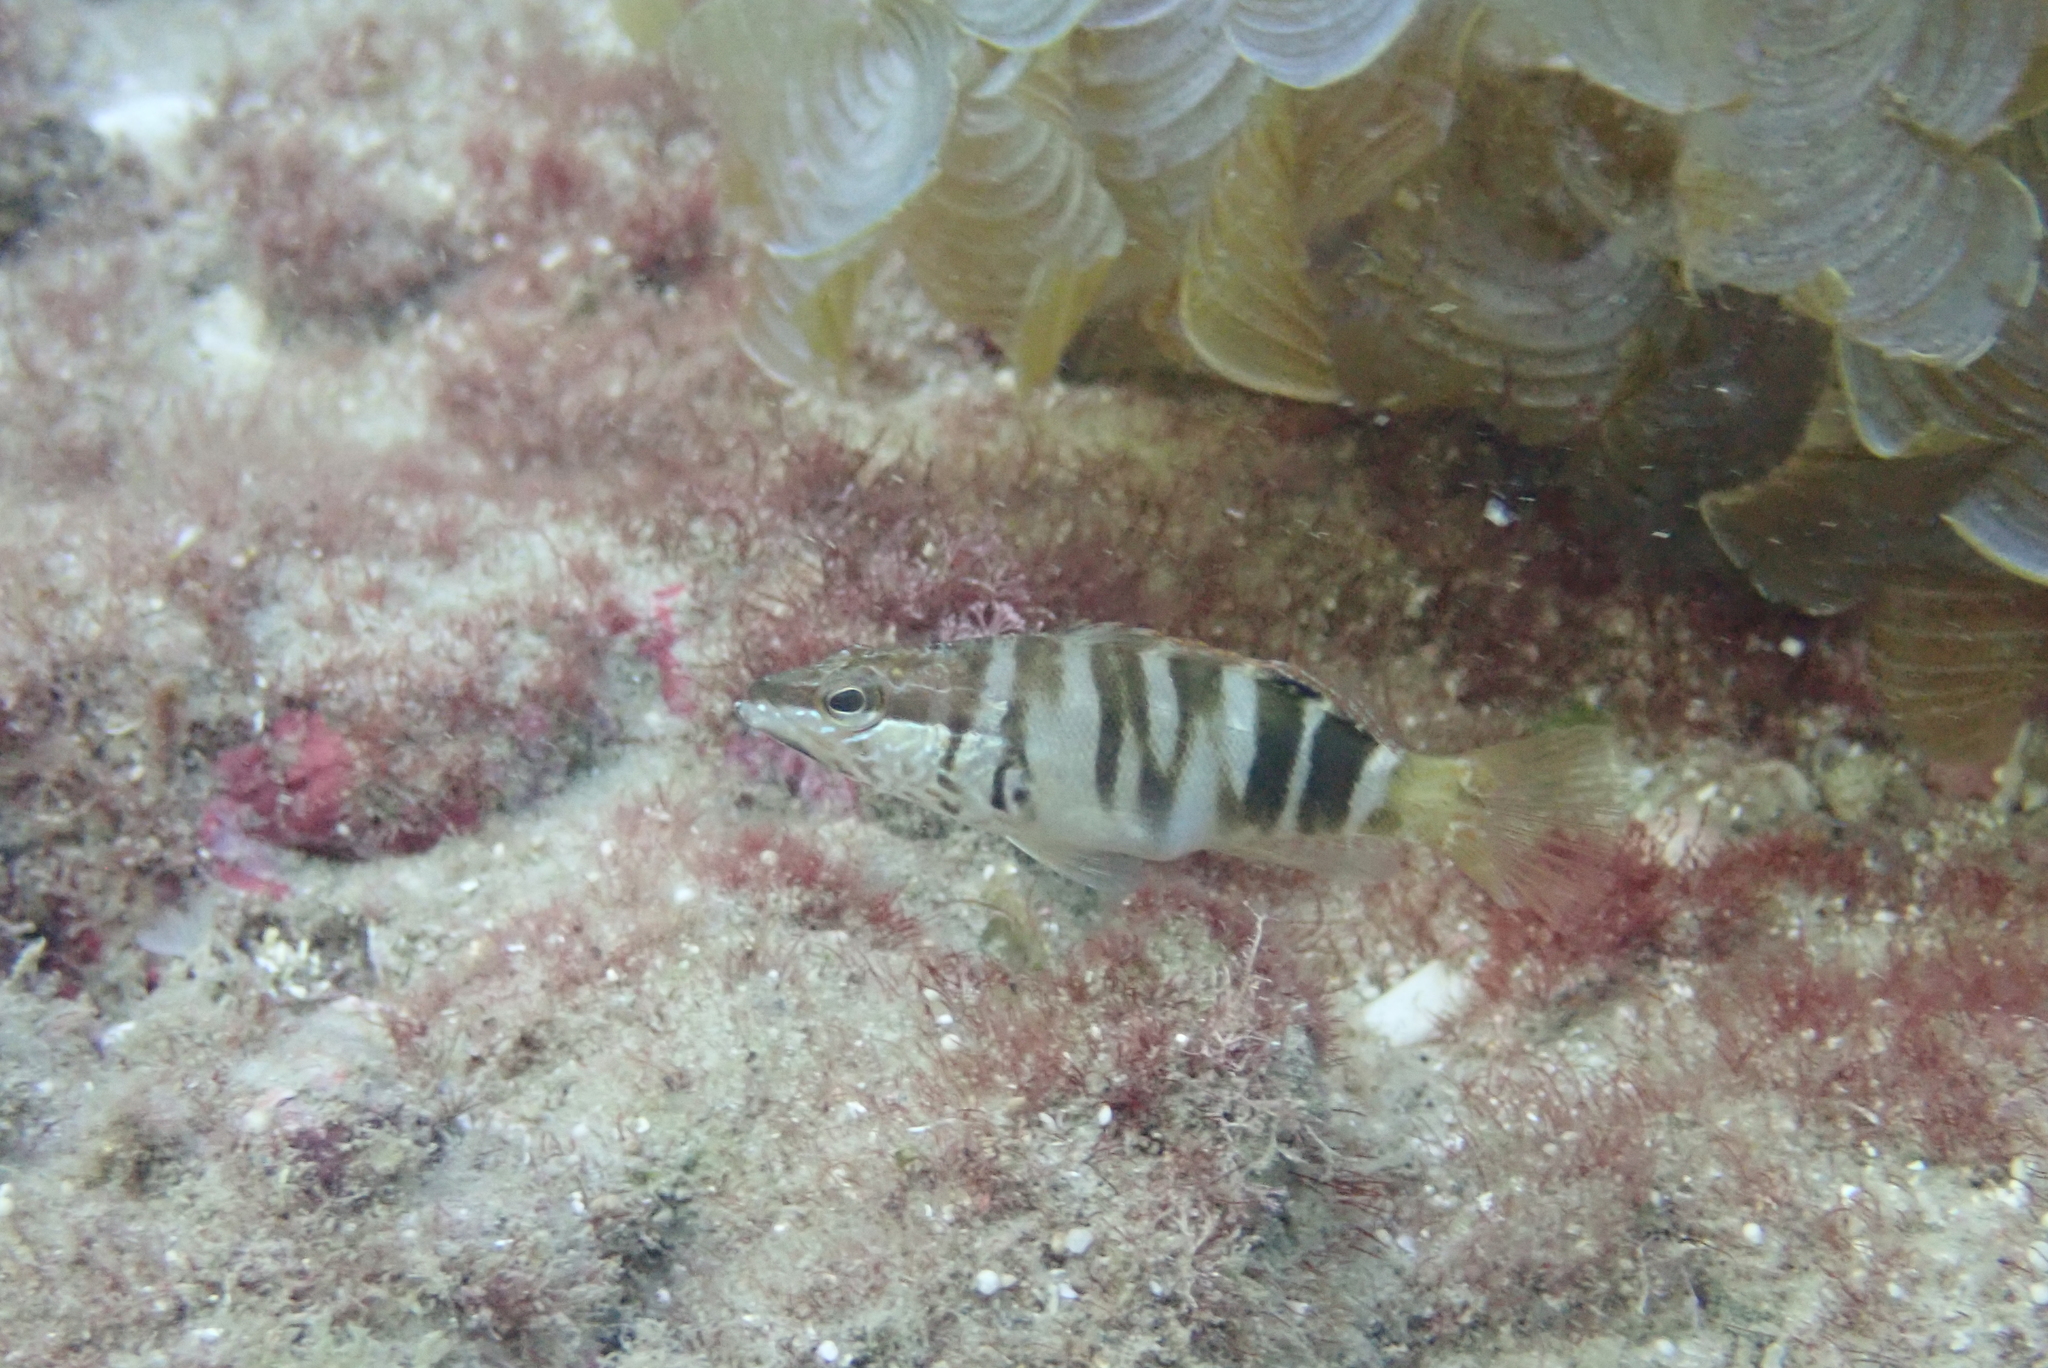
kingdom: Animalia
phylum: Chordata
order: Perciformes
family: Serranidae
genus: Serranus
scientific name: Serranus scriba
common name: Painted comber
